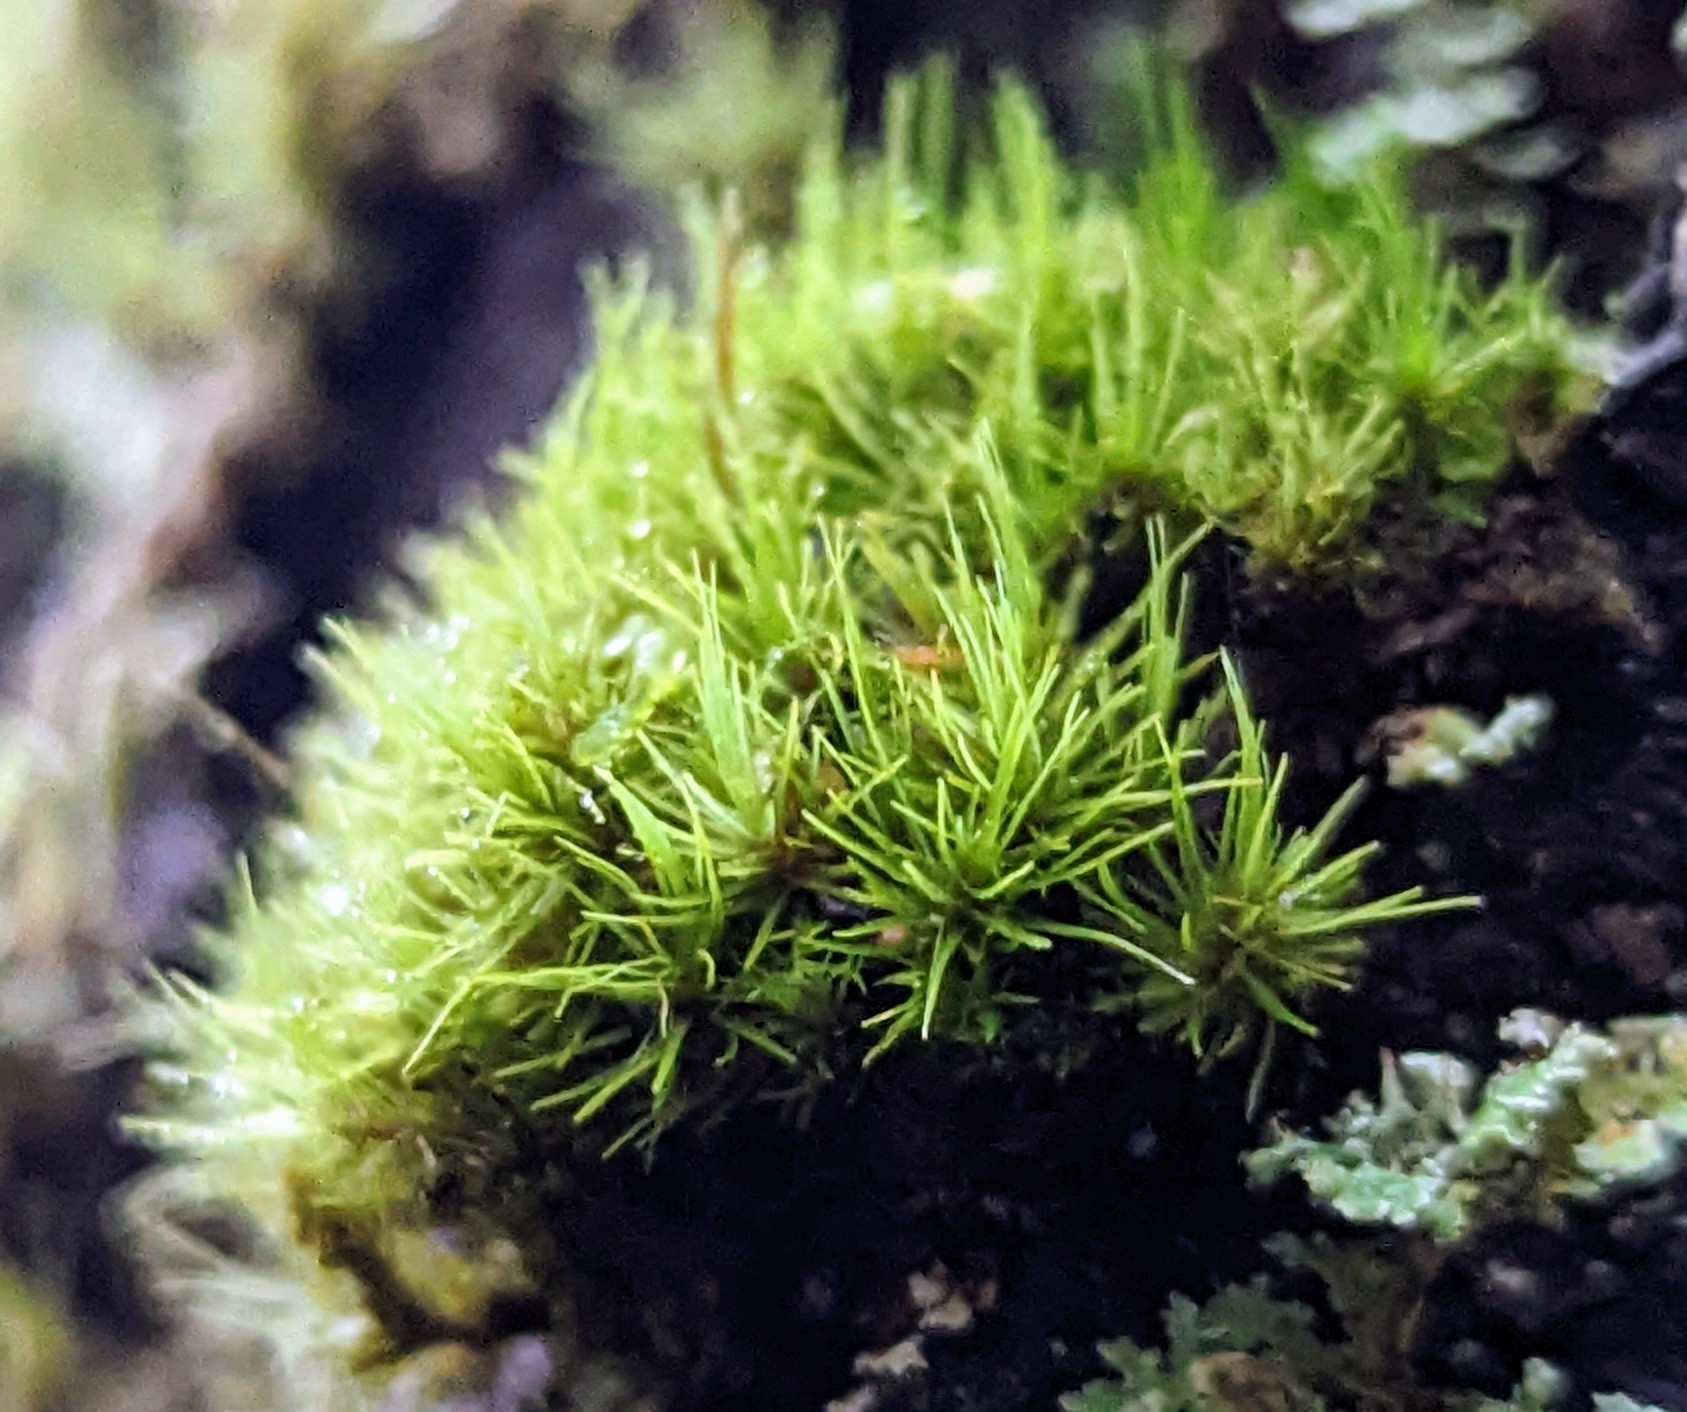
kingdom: Plantae
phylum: Bryophyta
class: Bryopsida
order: Dicranales
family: Dicranaceae
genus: Orthodicranum
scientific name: Orthodicranum tauricum
